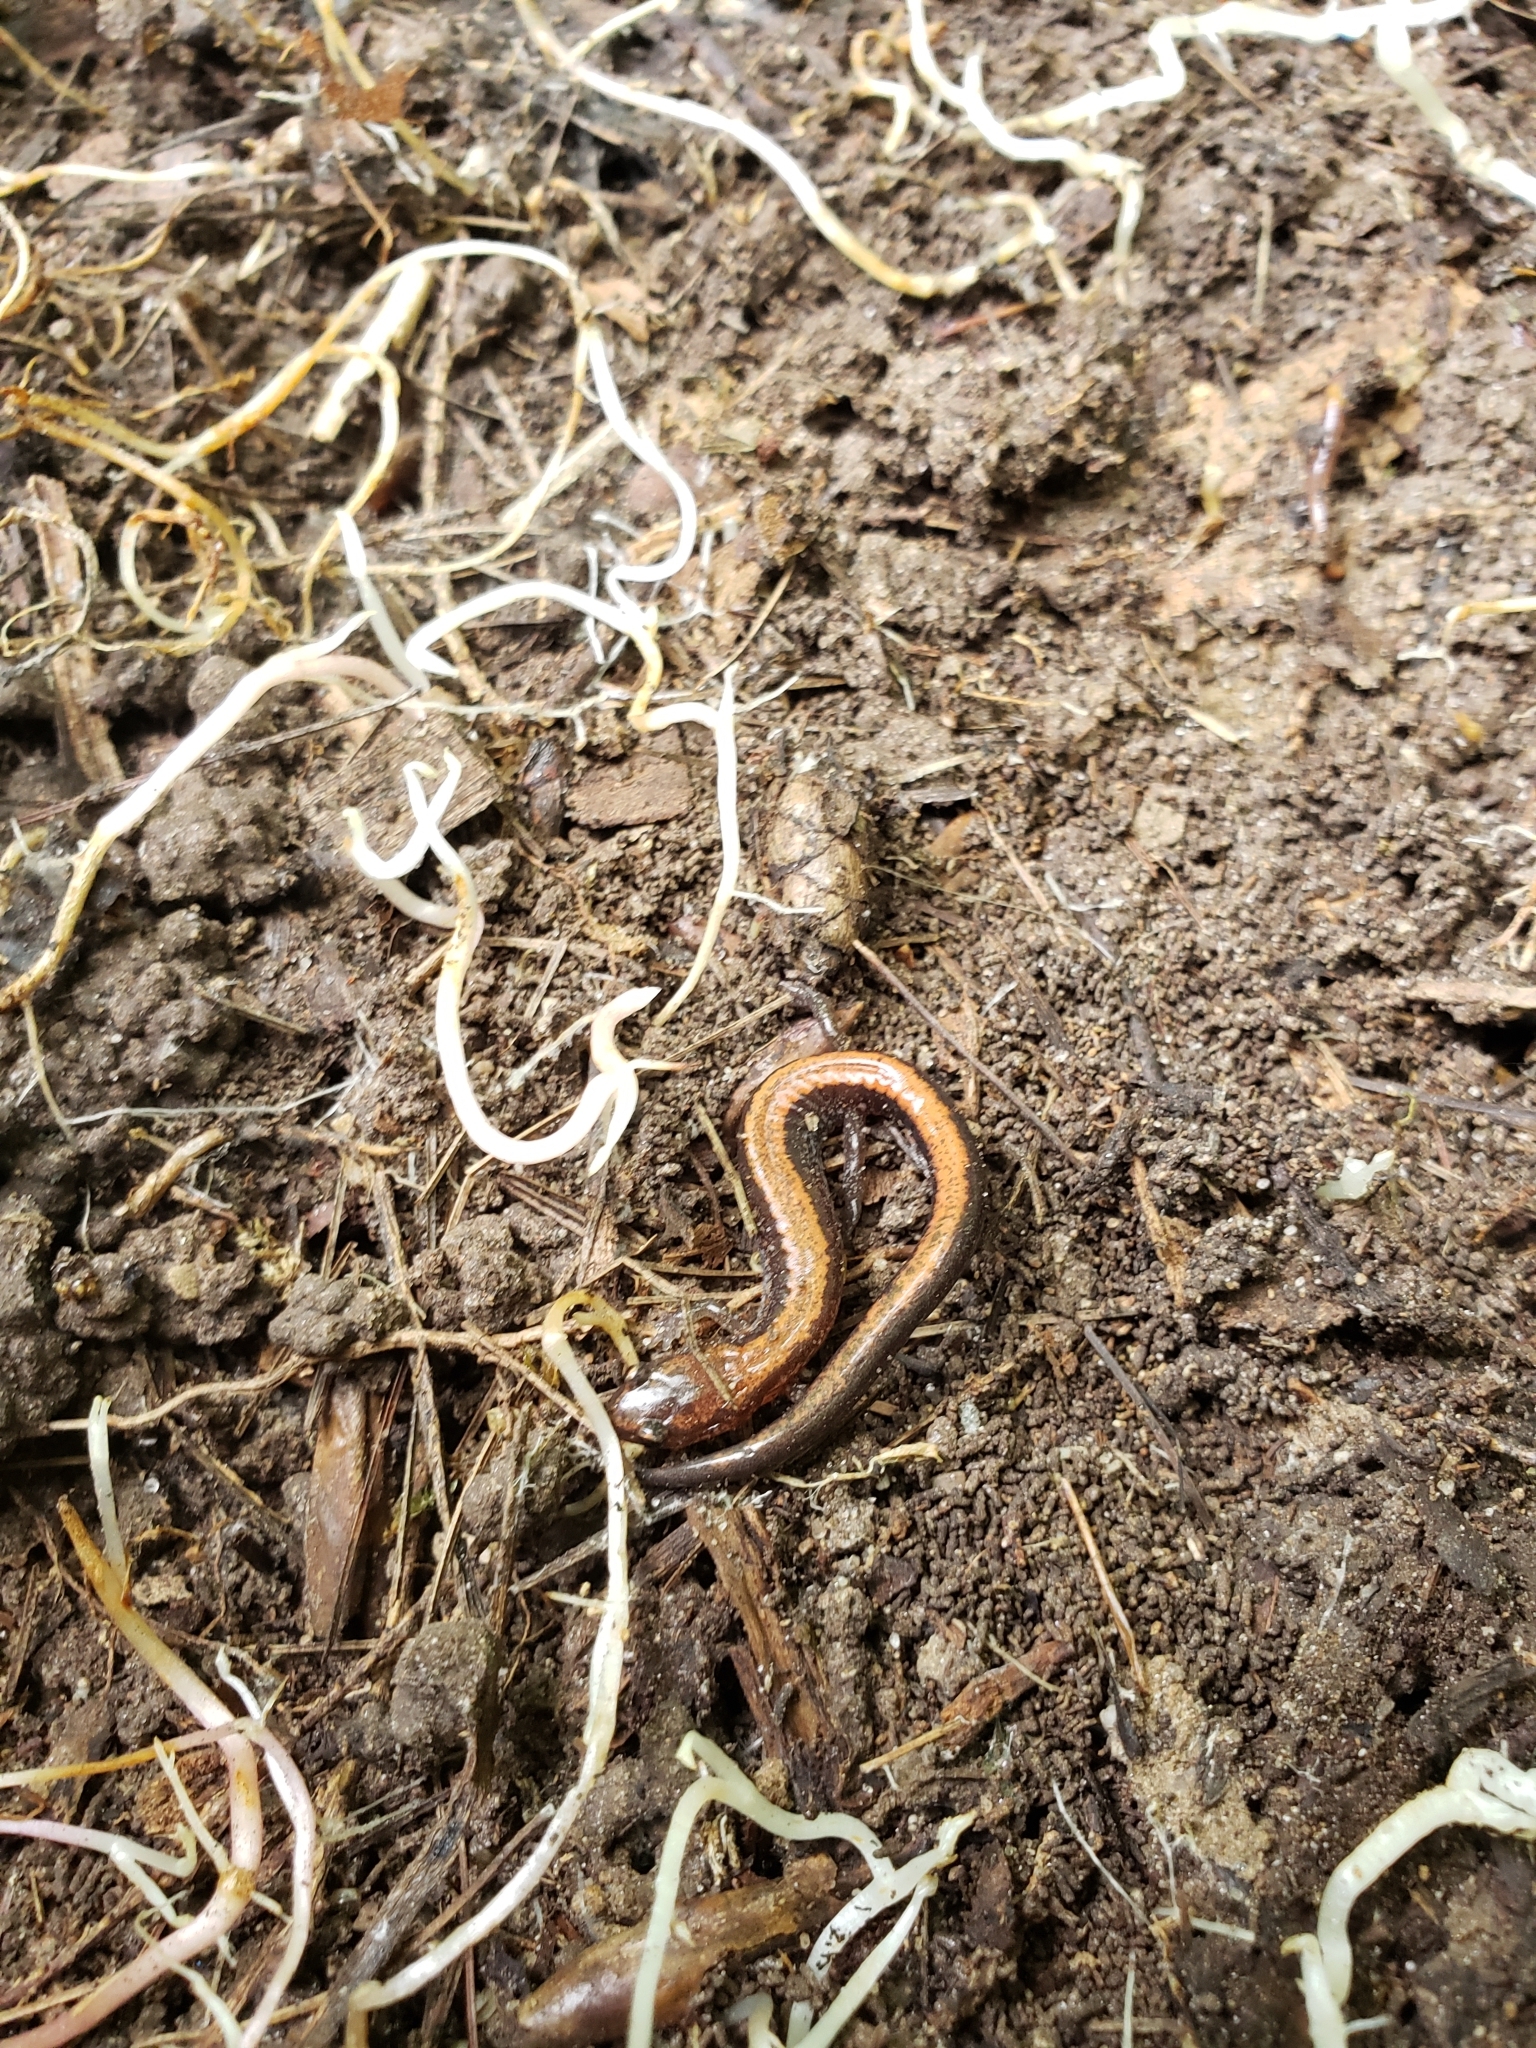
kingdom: Animalia
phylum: Chordata
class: Amphibia
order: Caudata
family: Plethodontidae
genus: Plethodon
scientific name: Plethodon cinereus
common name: Redback salamander
